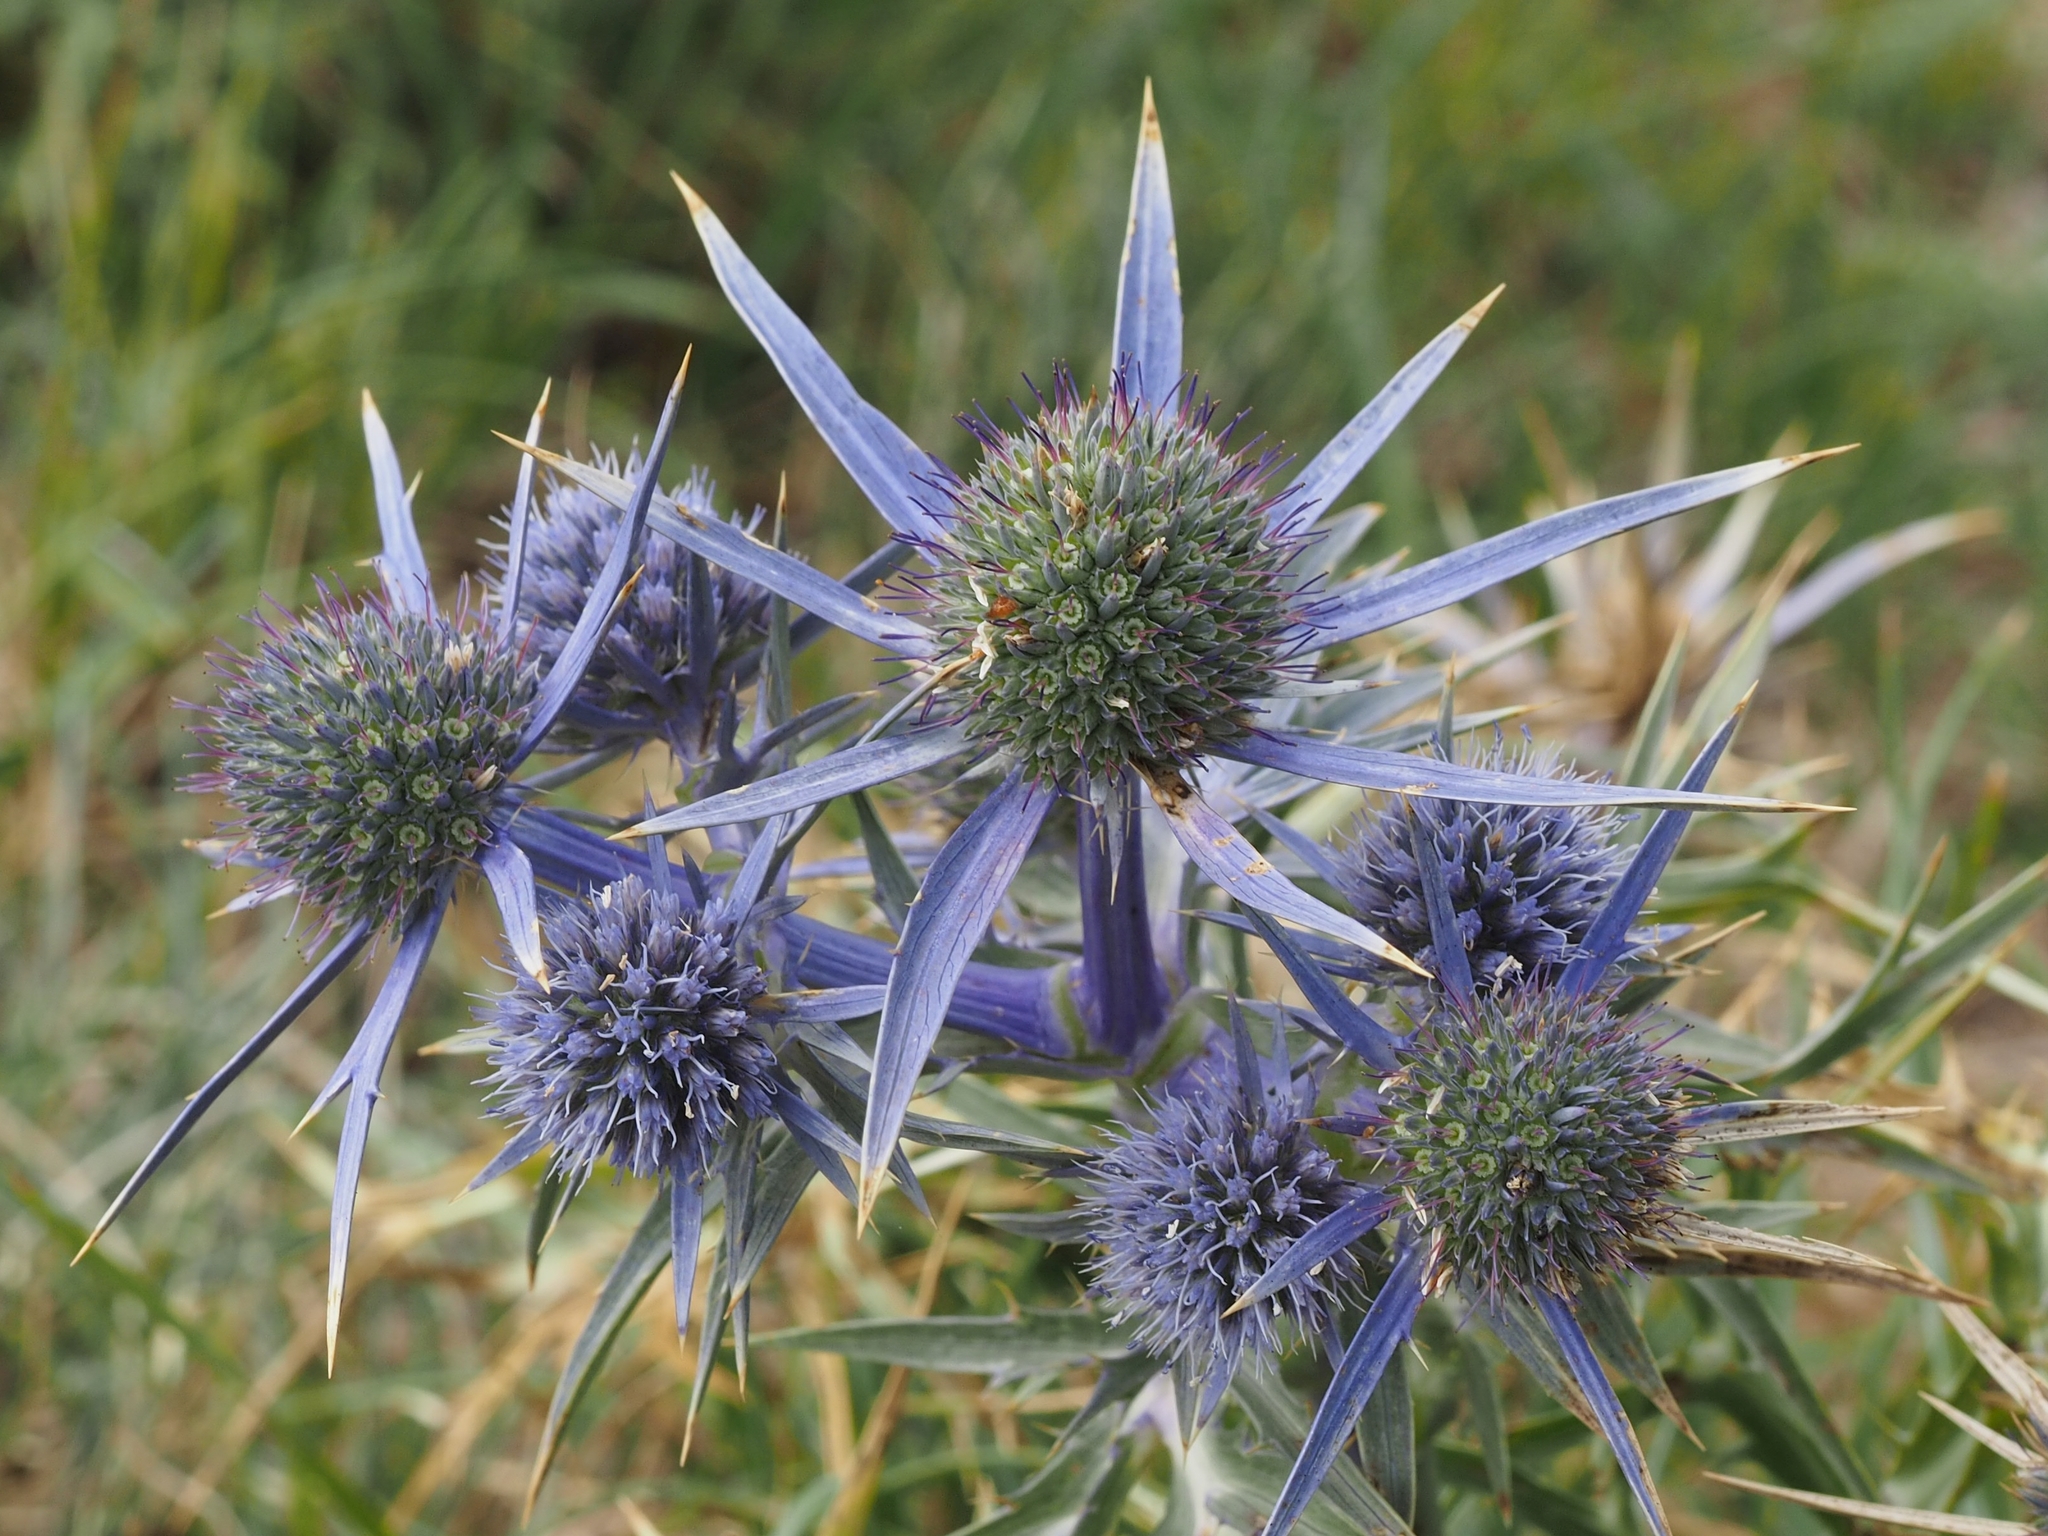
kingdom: Plantae
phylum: Tracheophyta
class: Magnoliopsida
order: Apiales
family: Apiaceae
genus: Eryngium
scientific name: Eryngium amethystinum
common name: Amethyst eryngo
